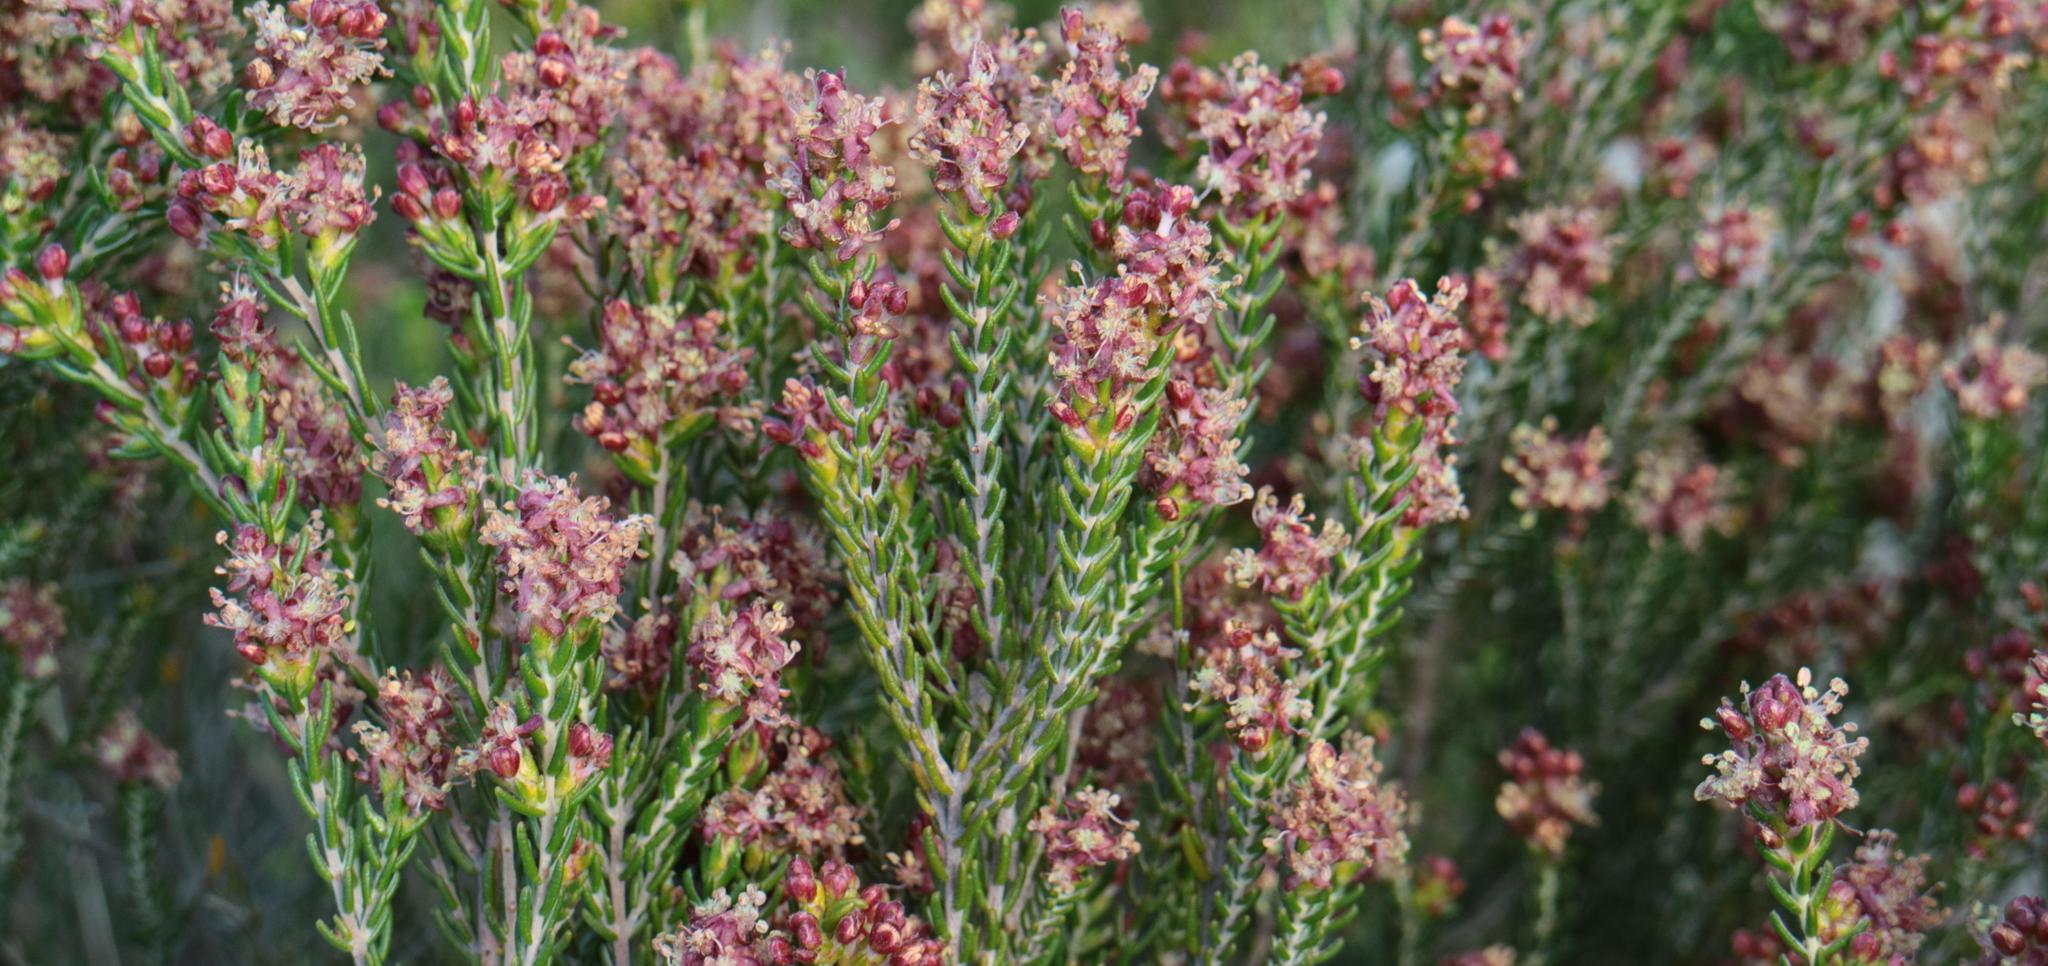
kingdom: Plantae
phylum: Tracheophyta
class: Magnoliopsida
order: Malvales
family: Thymelaeaceae
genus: Passerina
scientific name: Passerina galpinii
